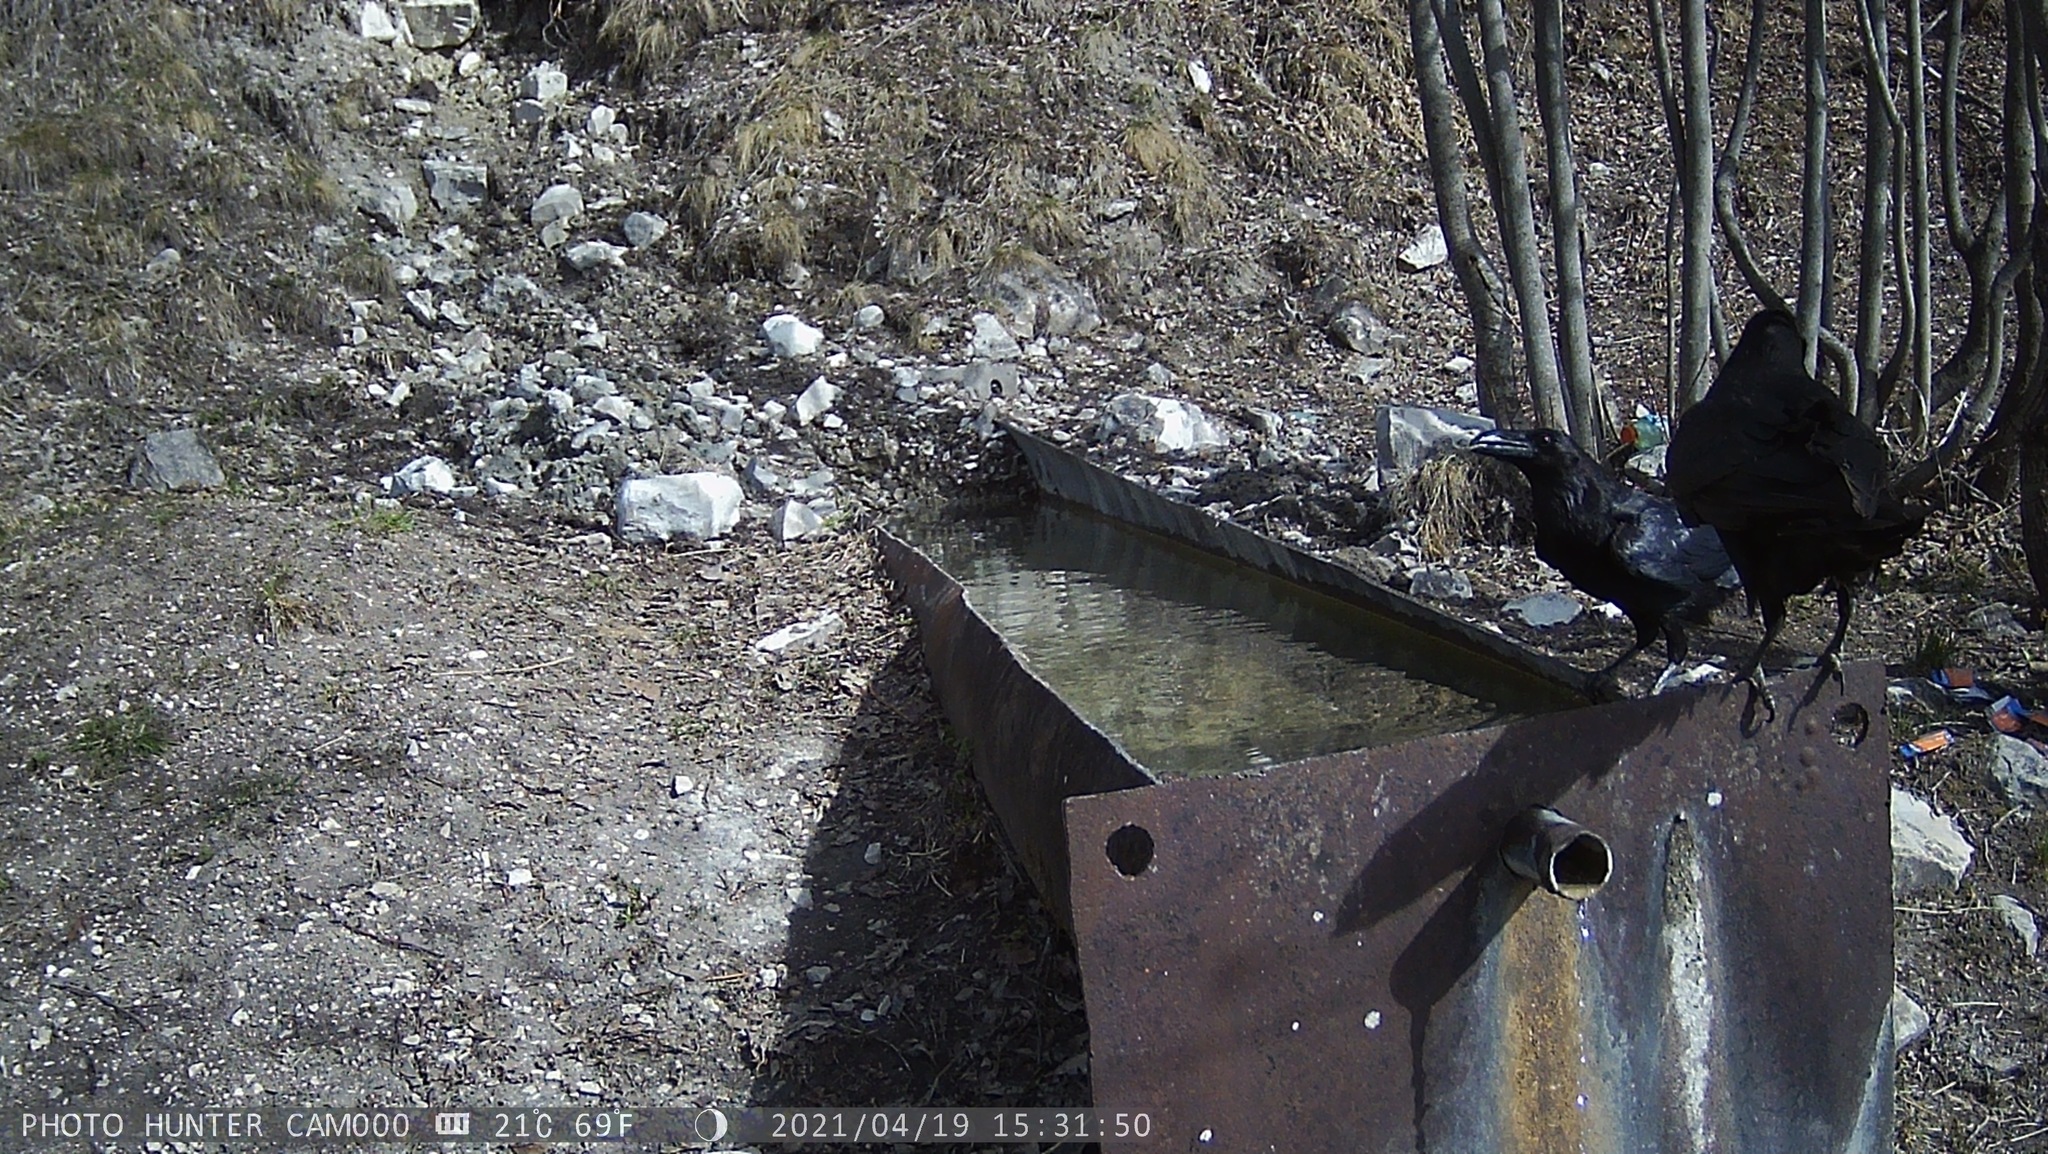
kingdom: Animalia
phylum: Chordata
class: Aves
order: Passeriformes
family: Corvidae
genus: Corvus
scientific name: Corvus corax
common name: Common raven
